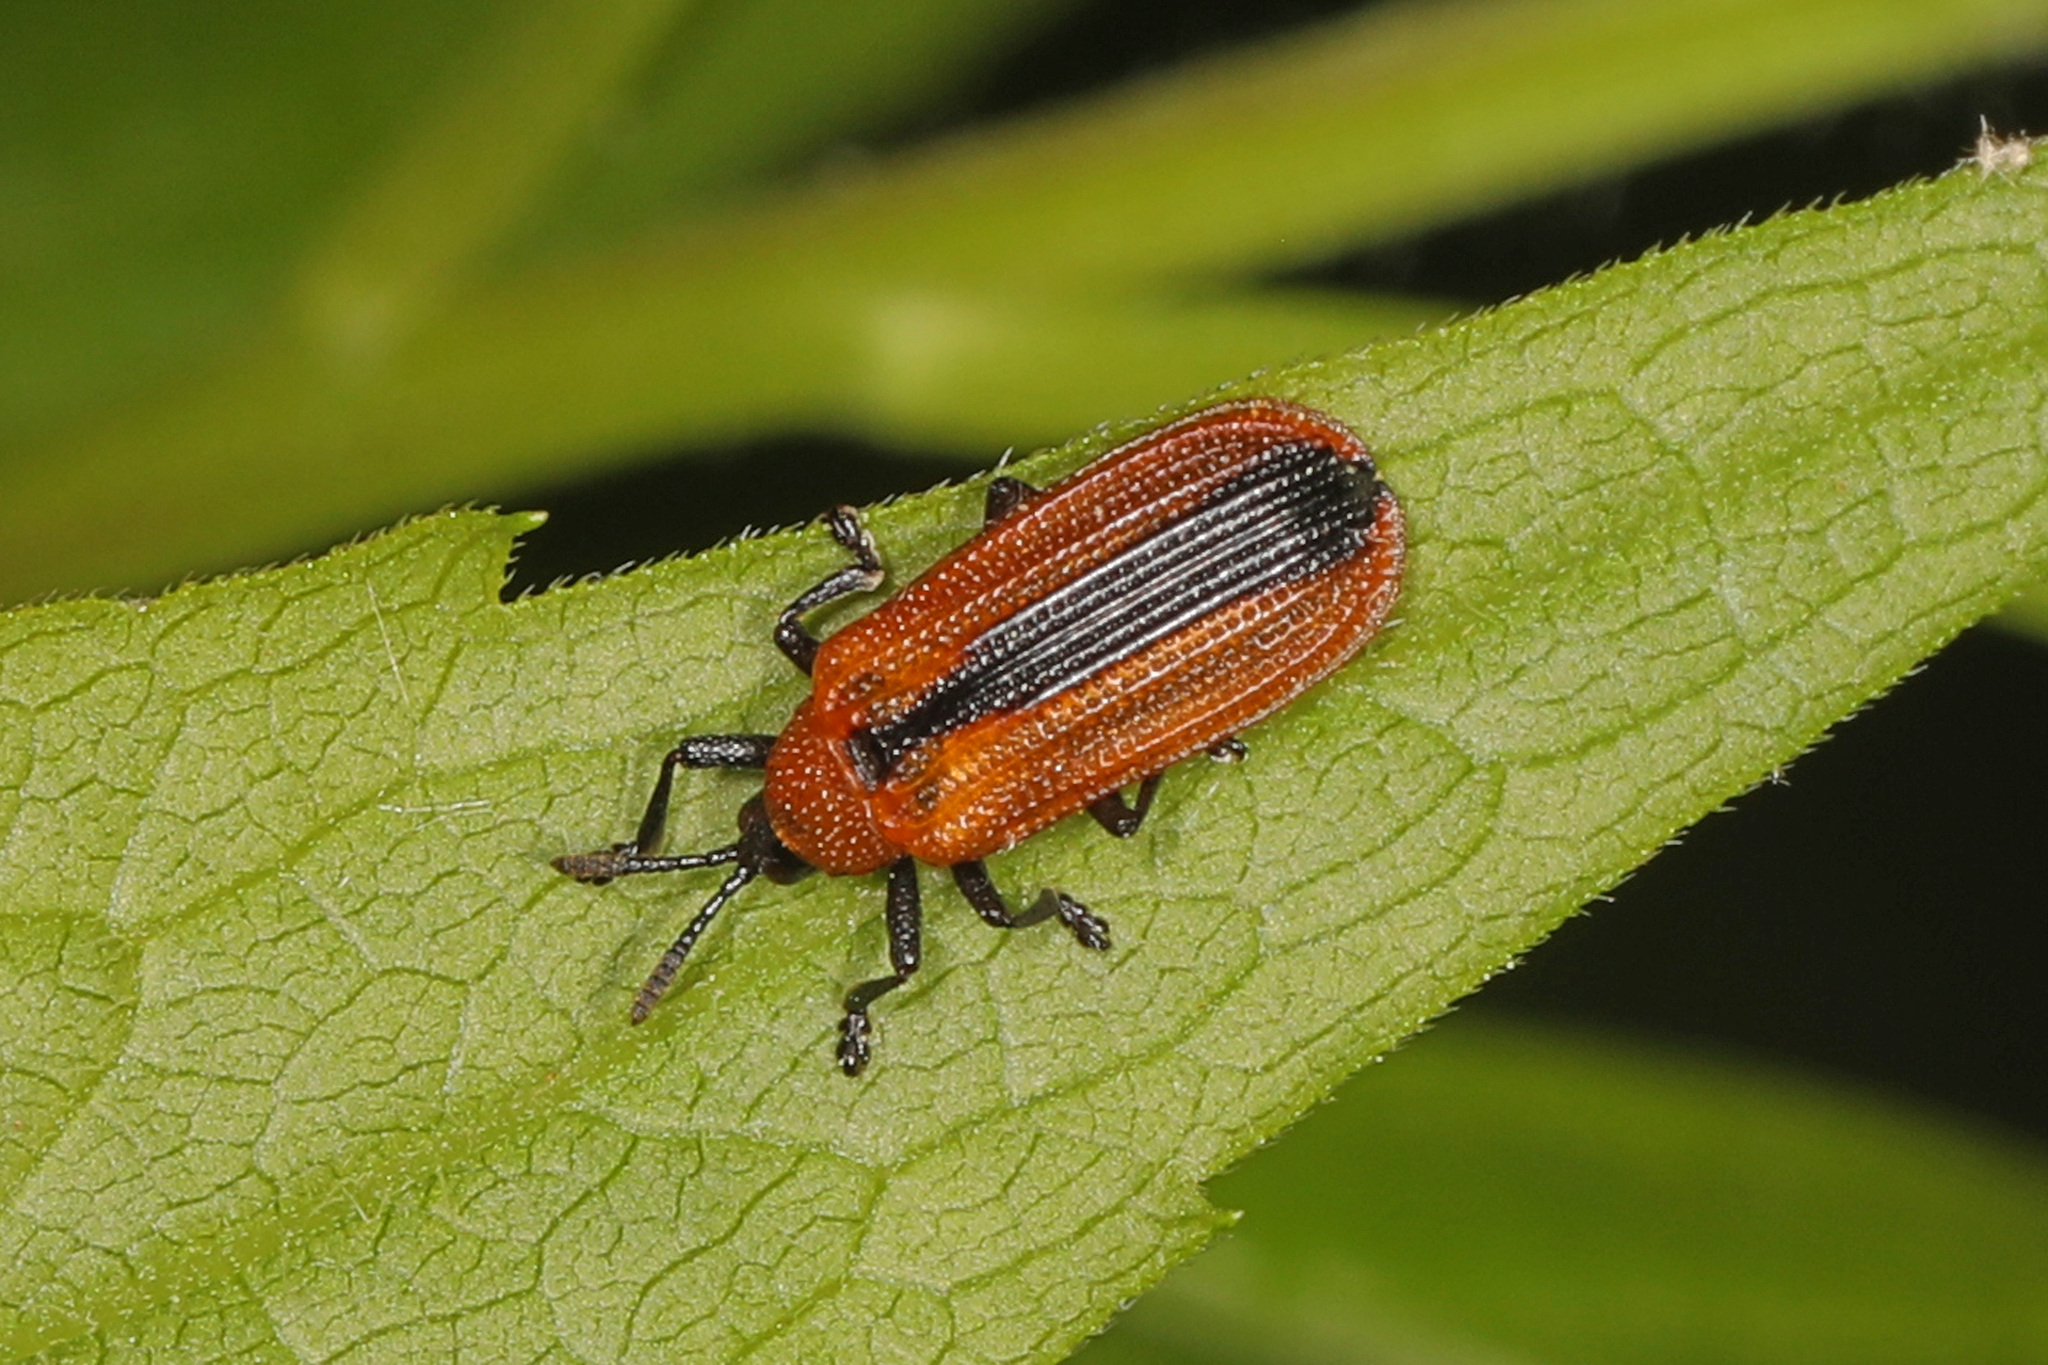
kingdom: Animalia
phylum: Arthropoda
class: Insecta
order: Coleoptera
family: Chrysomelidae
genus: Odontota
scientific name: Odontota dorsalis
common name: Locust leaf-miner beetle
